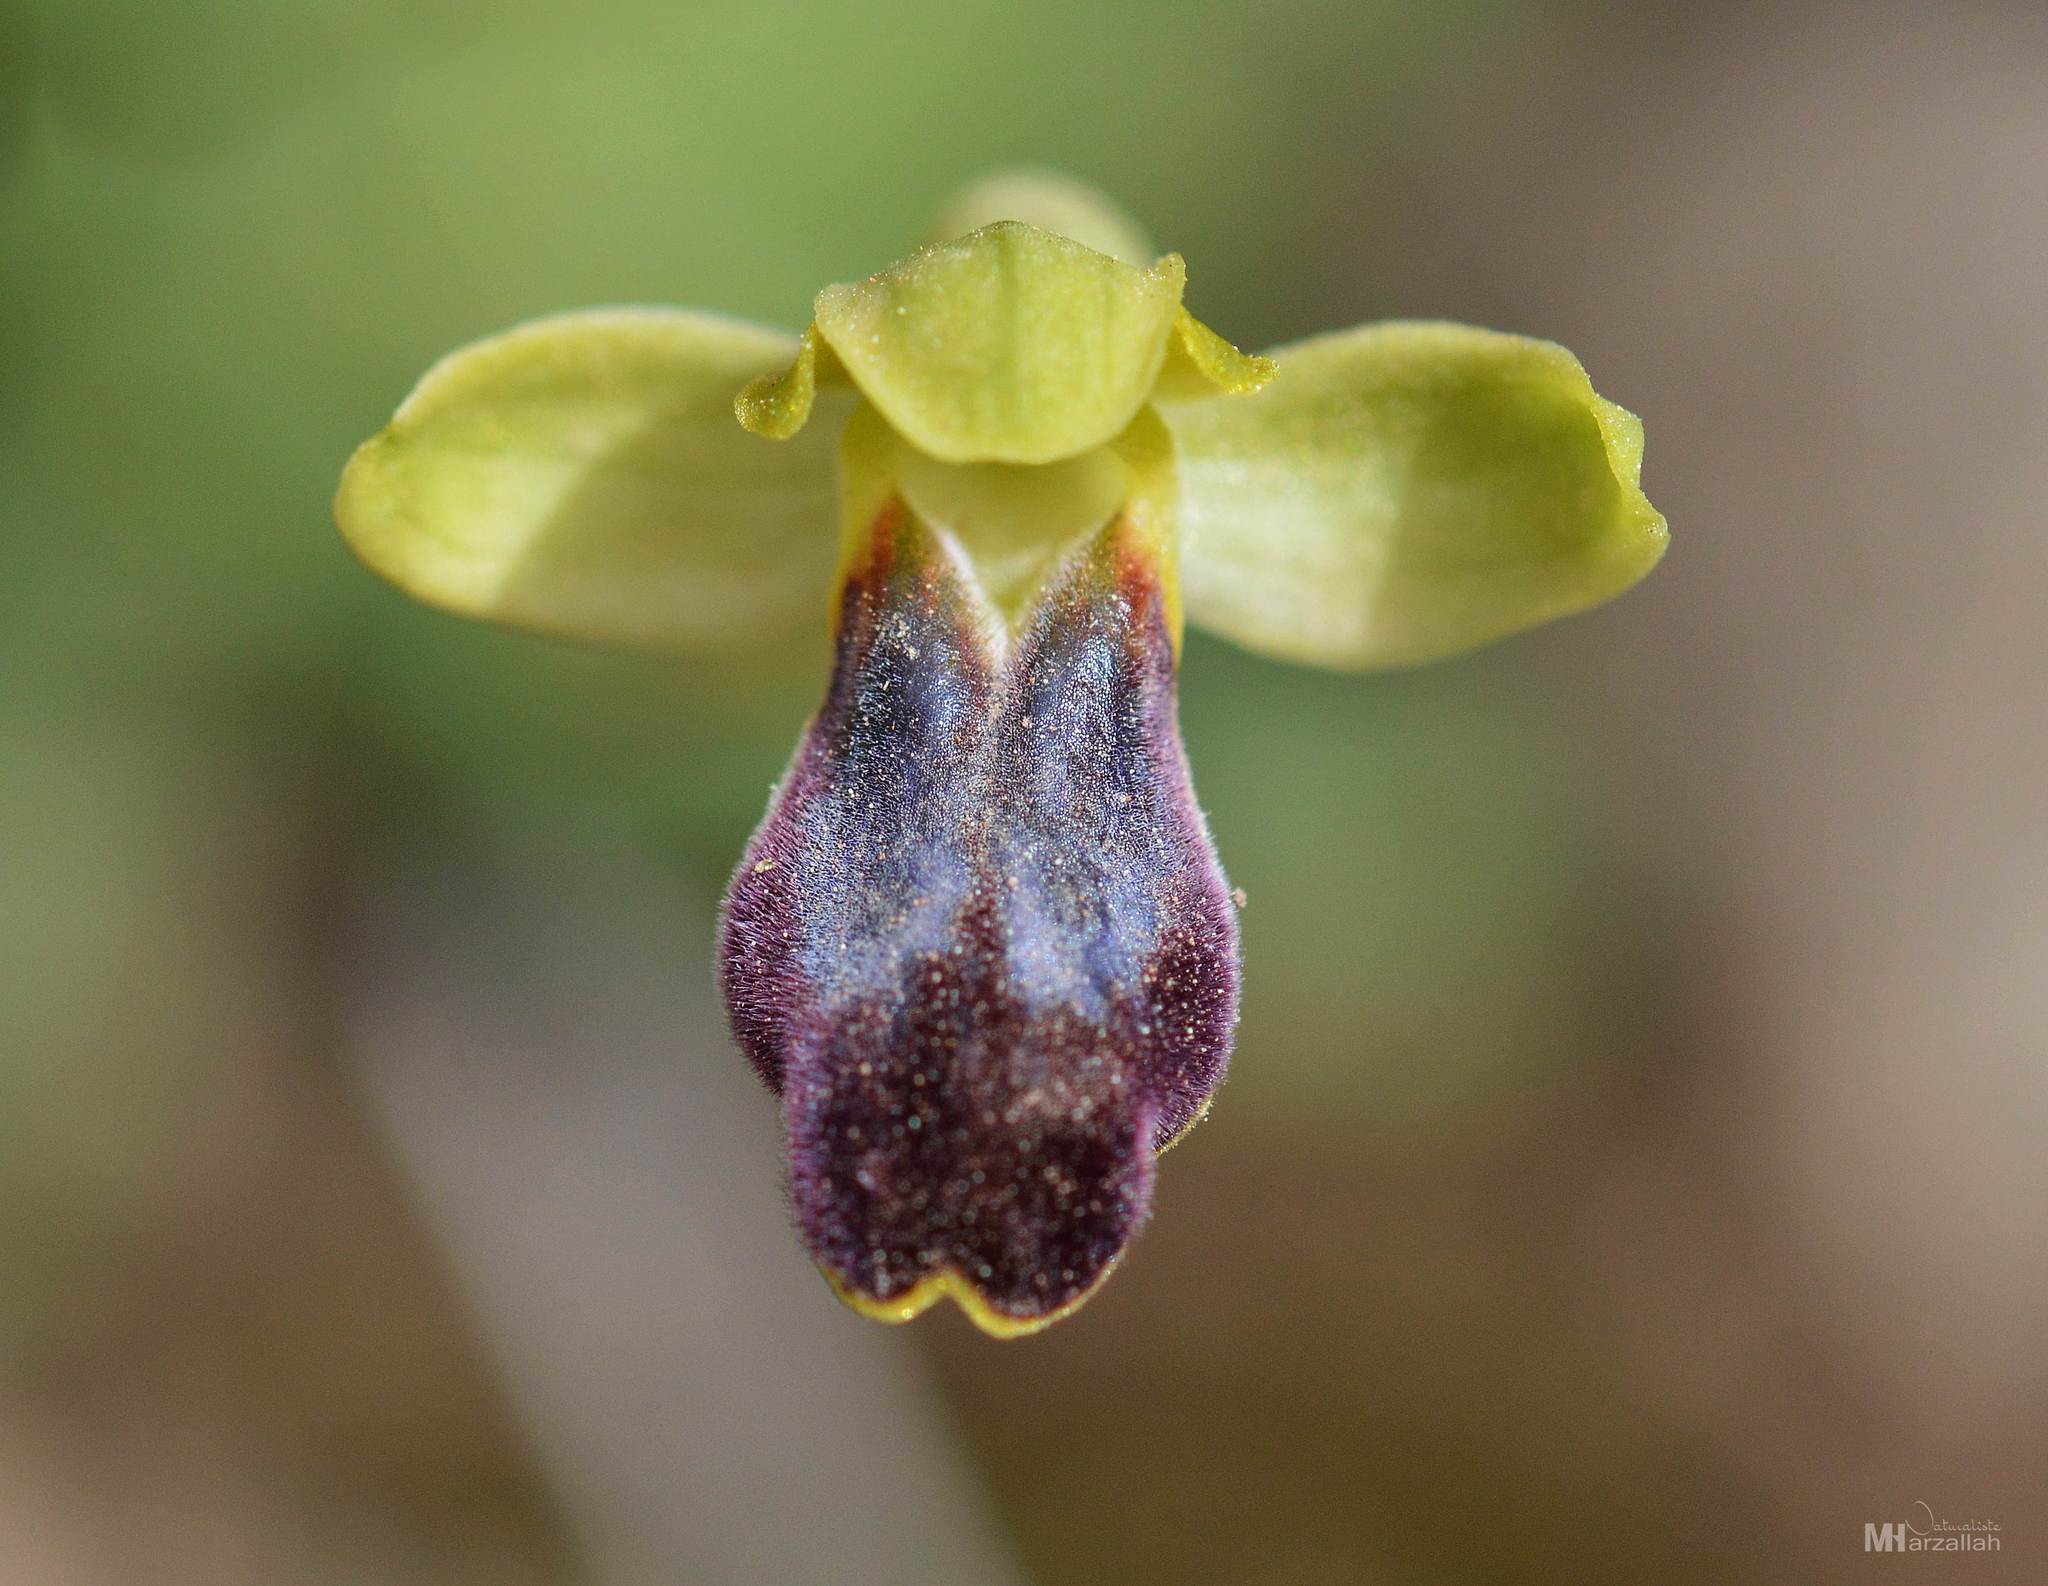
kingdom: Plantae
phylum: Tracheophyta
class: Liliopsida
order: Asparagales
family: Orchidaceae
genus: Ophrys
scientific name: Ophrys fusca
